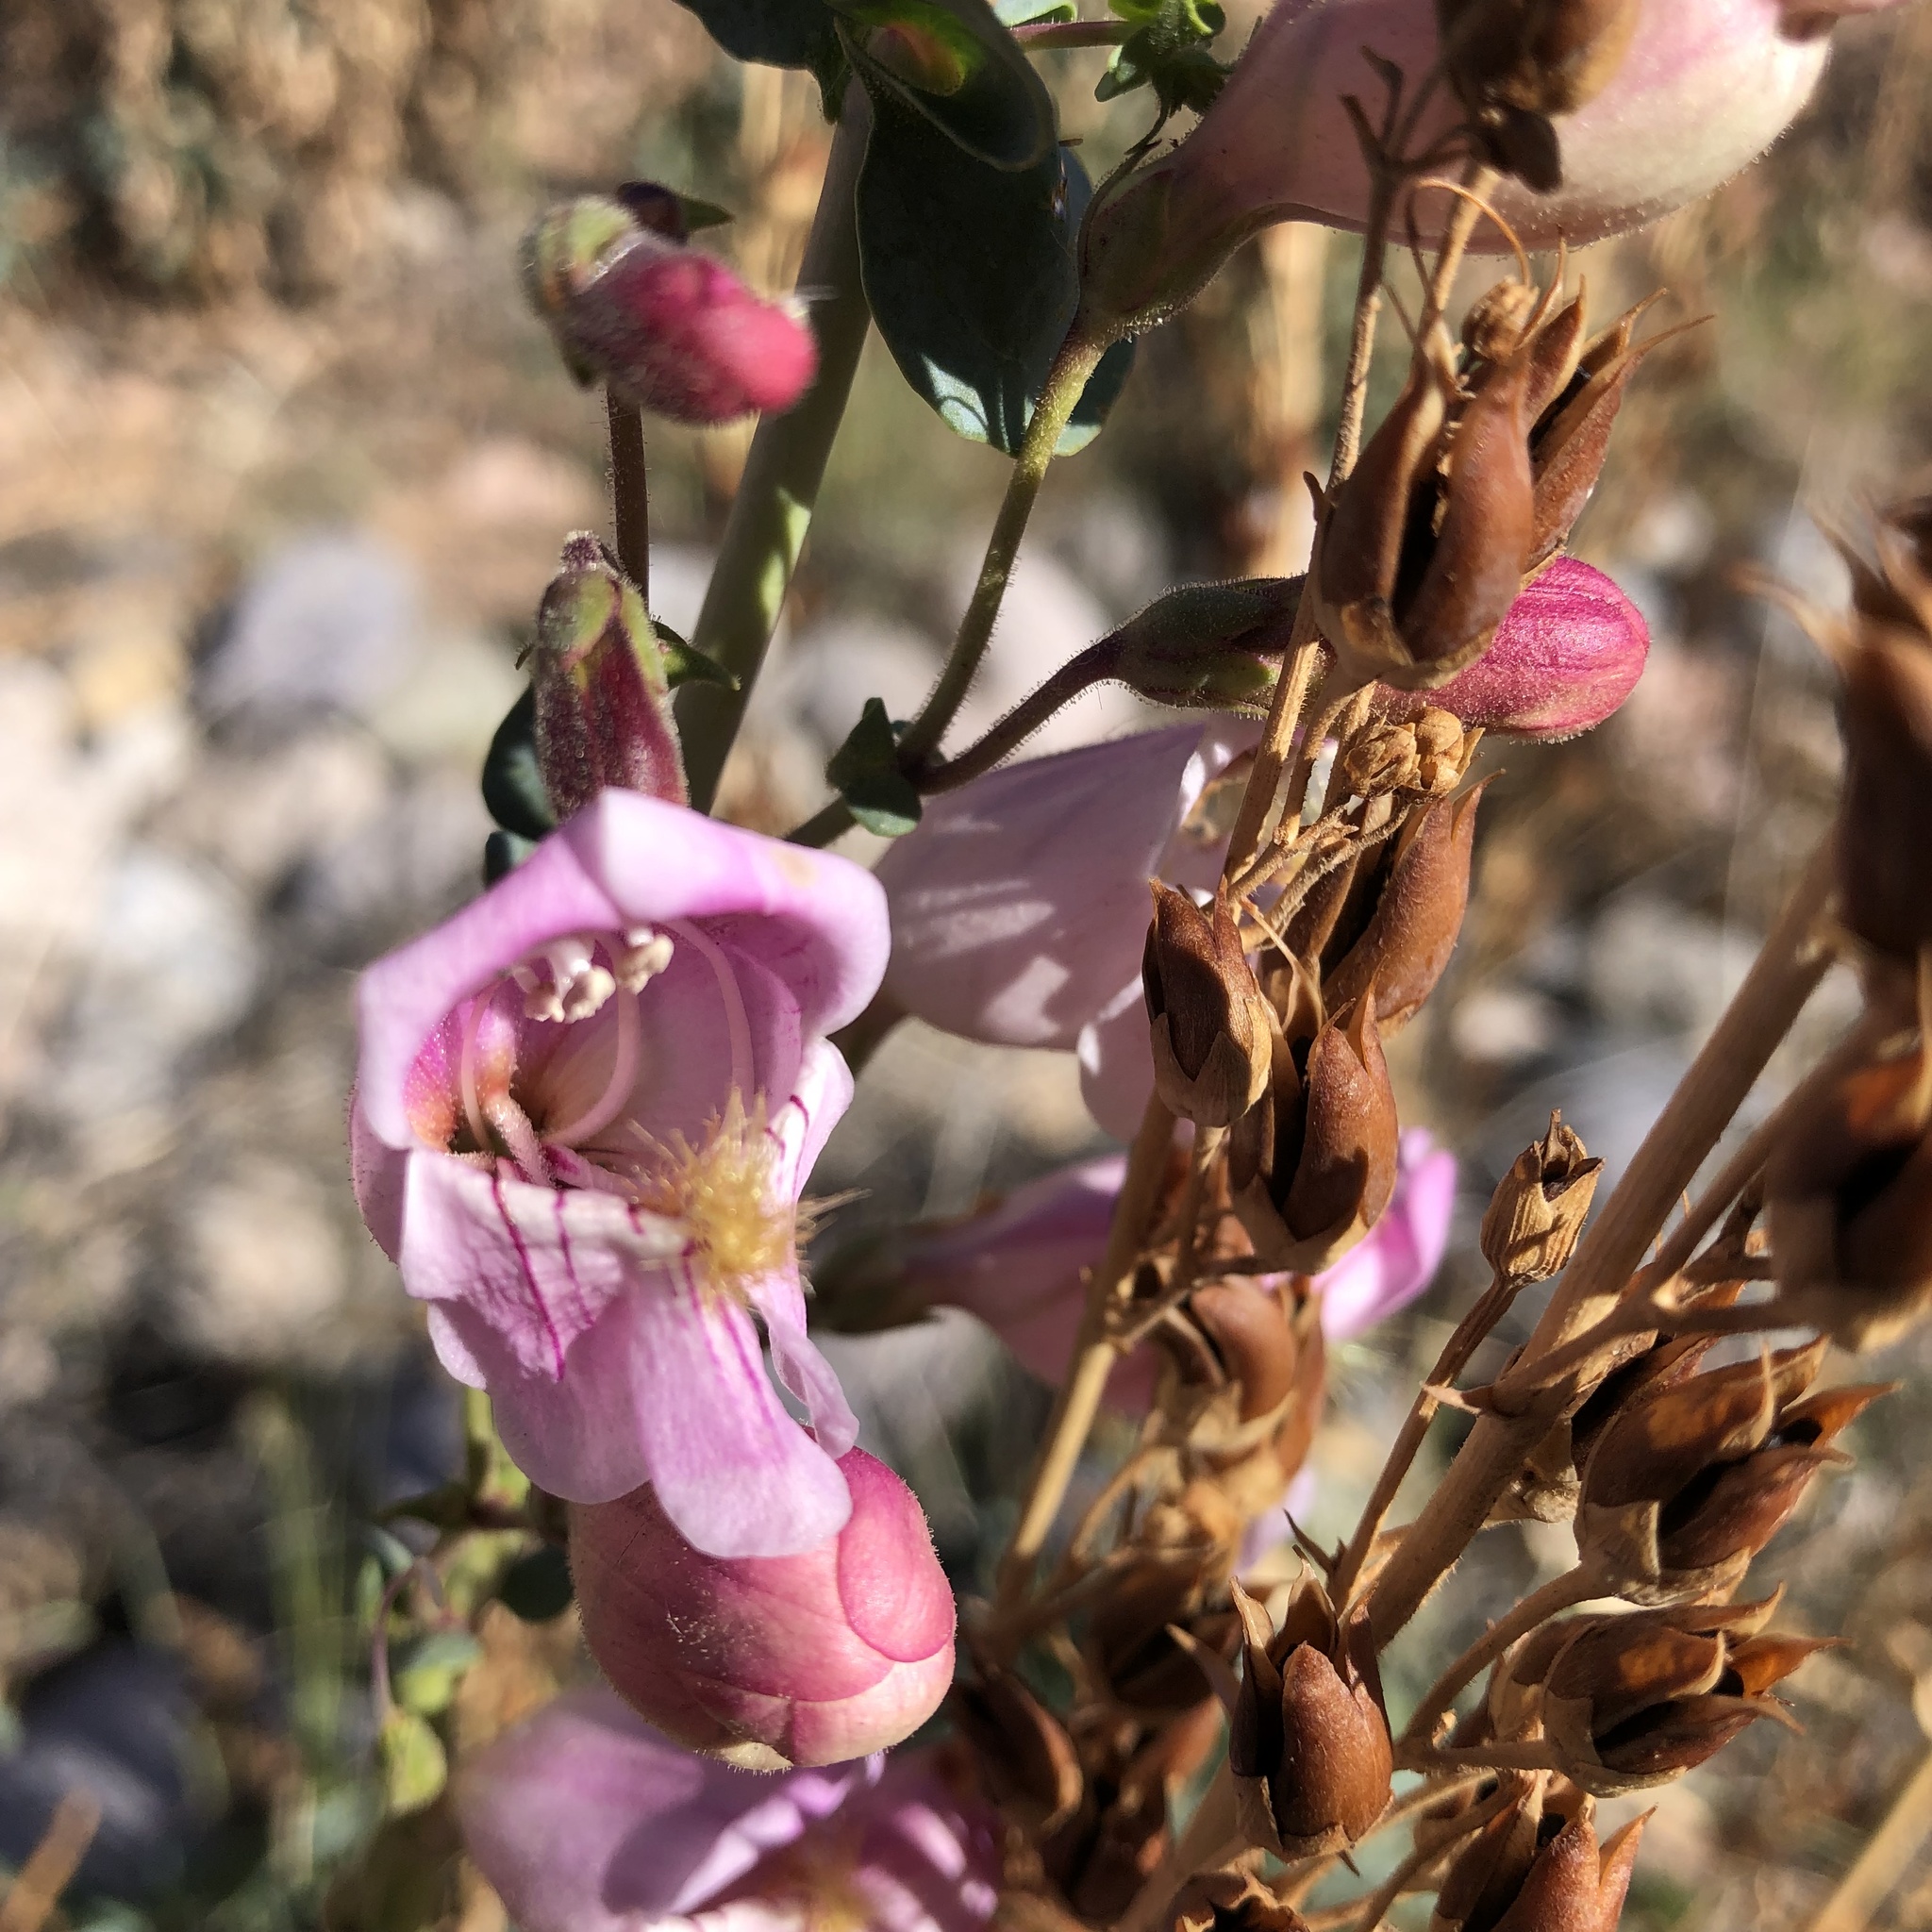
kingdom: Plantae
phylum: Tracheophyta
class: Magnoliopsida
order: Lamiales
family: Plantaginaceae
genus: Penstemon
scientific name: Penstemon palmeri
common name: Palmer penstemon
